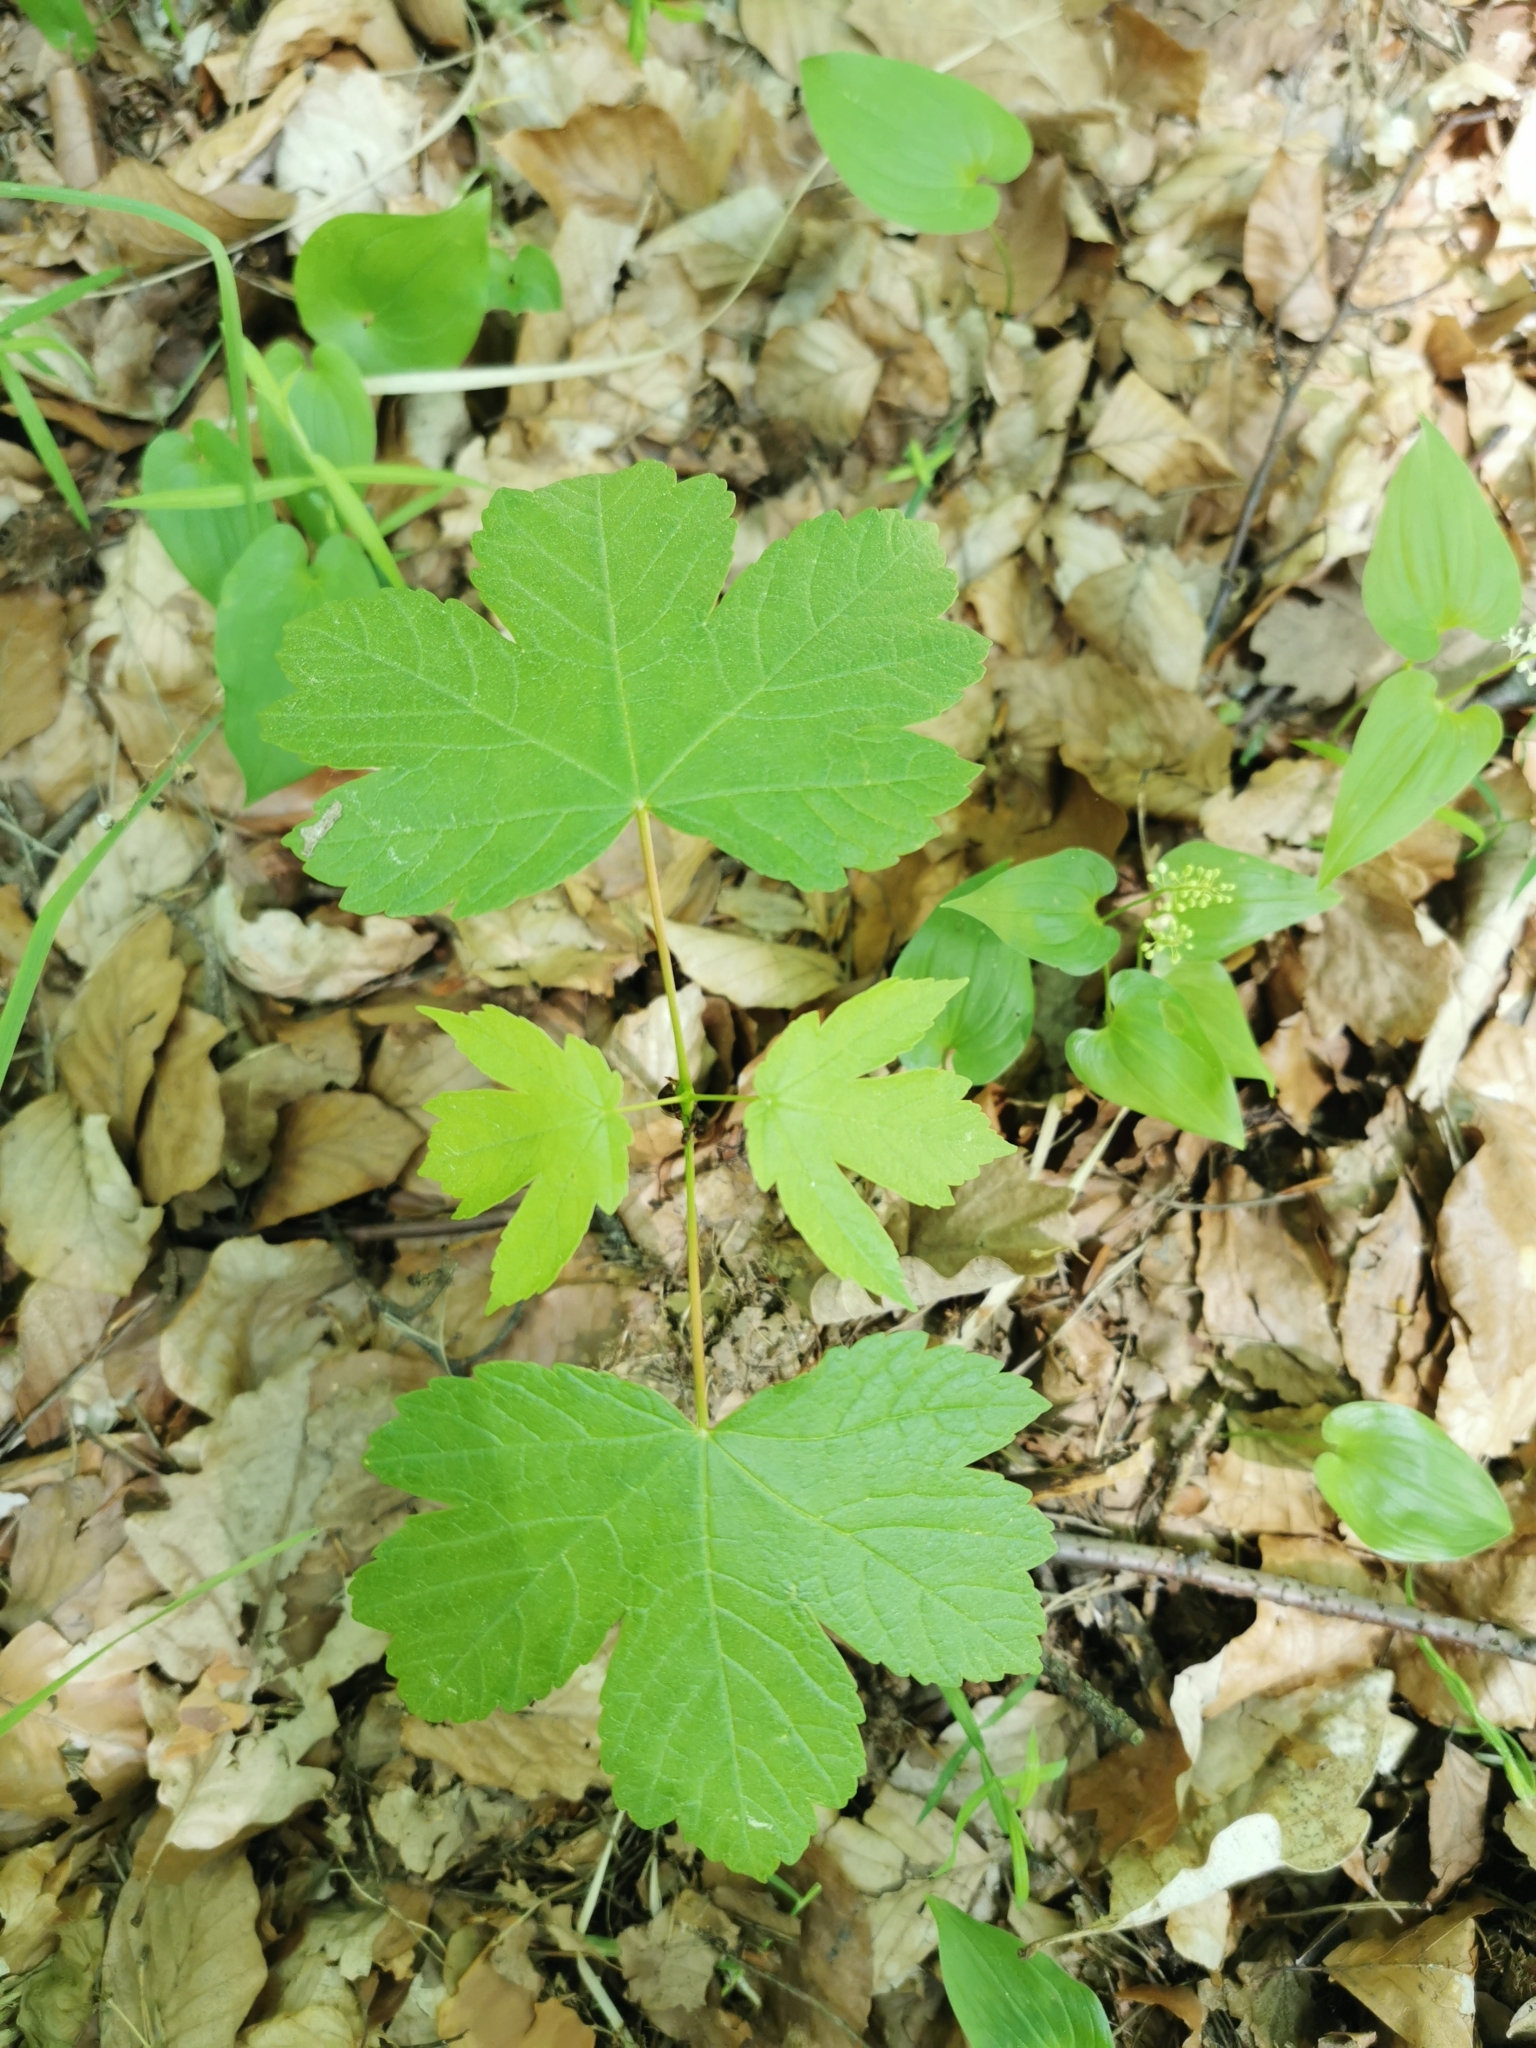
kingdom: Plantae
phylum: Tracheophyta
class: Magnoliopsida
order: Sapindales
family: Sapindaceae
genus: Acer
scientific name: Acer pseudoplatanus
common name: Sycamore
